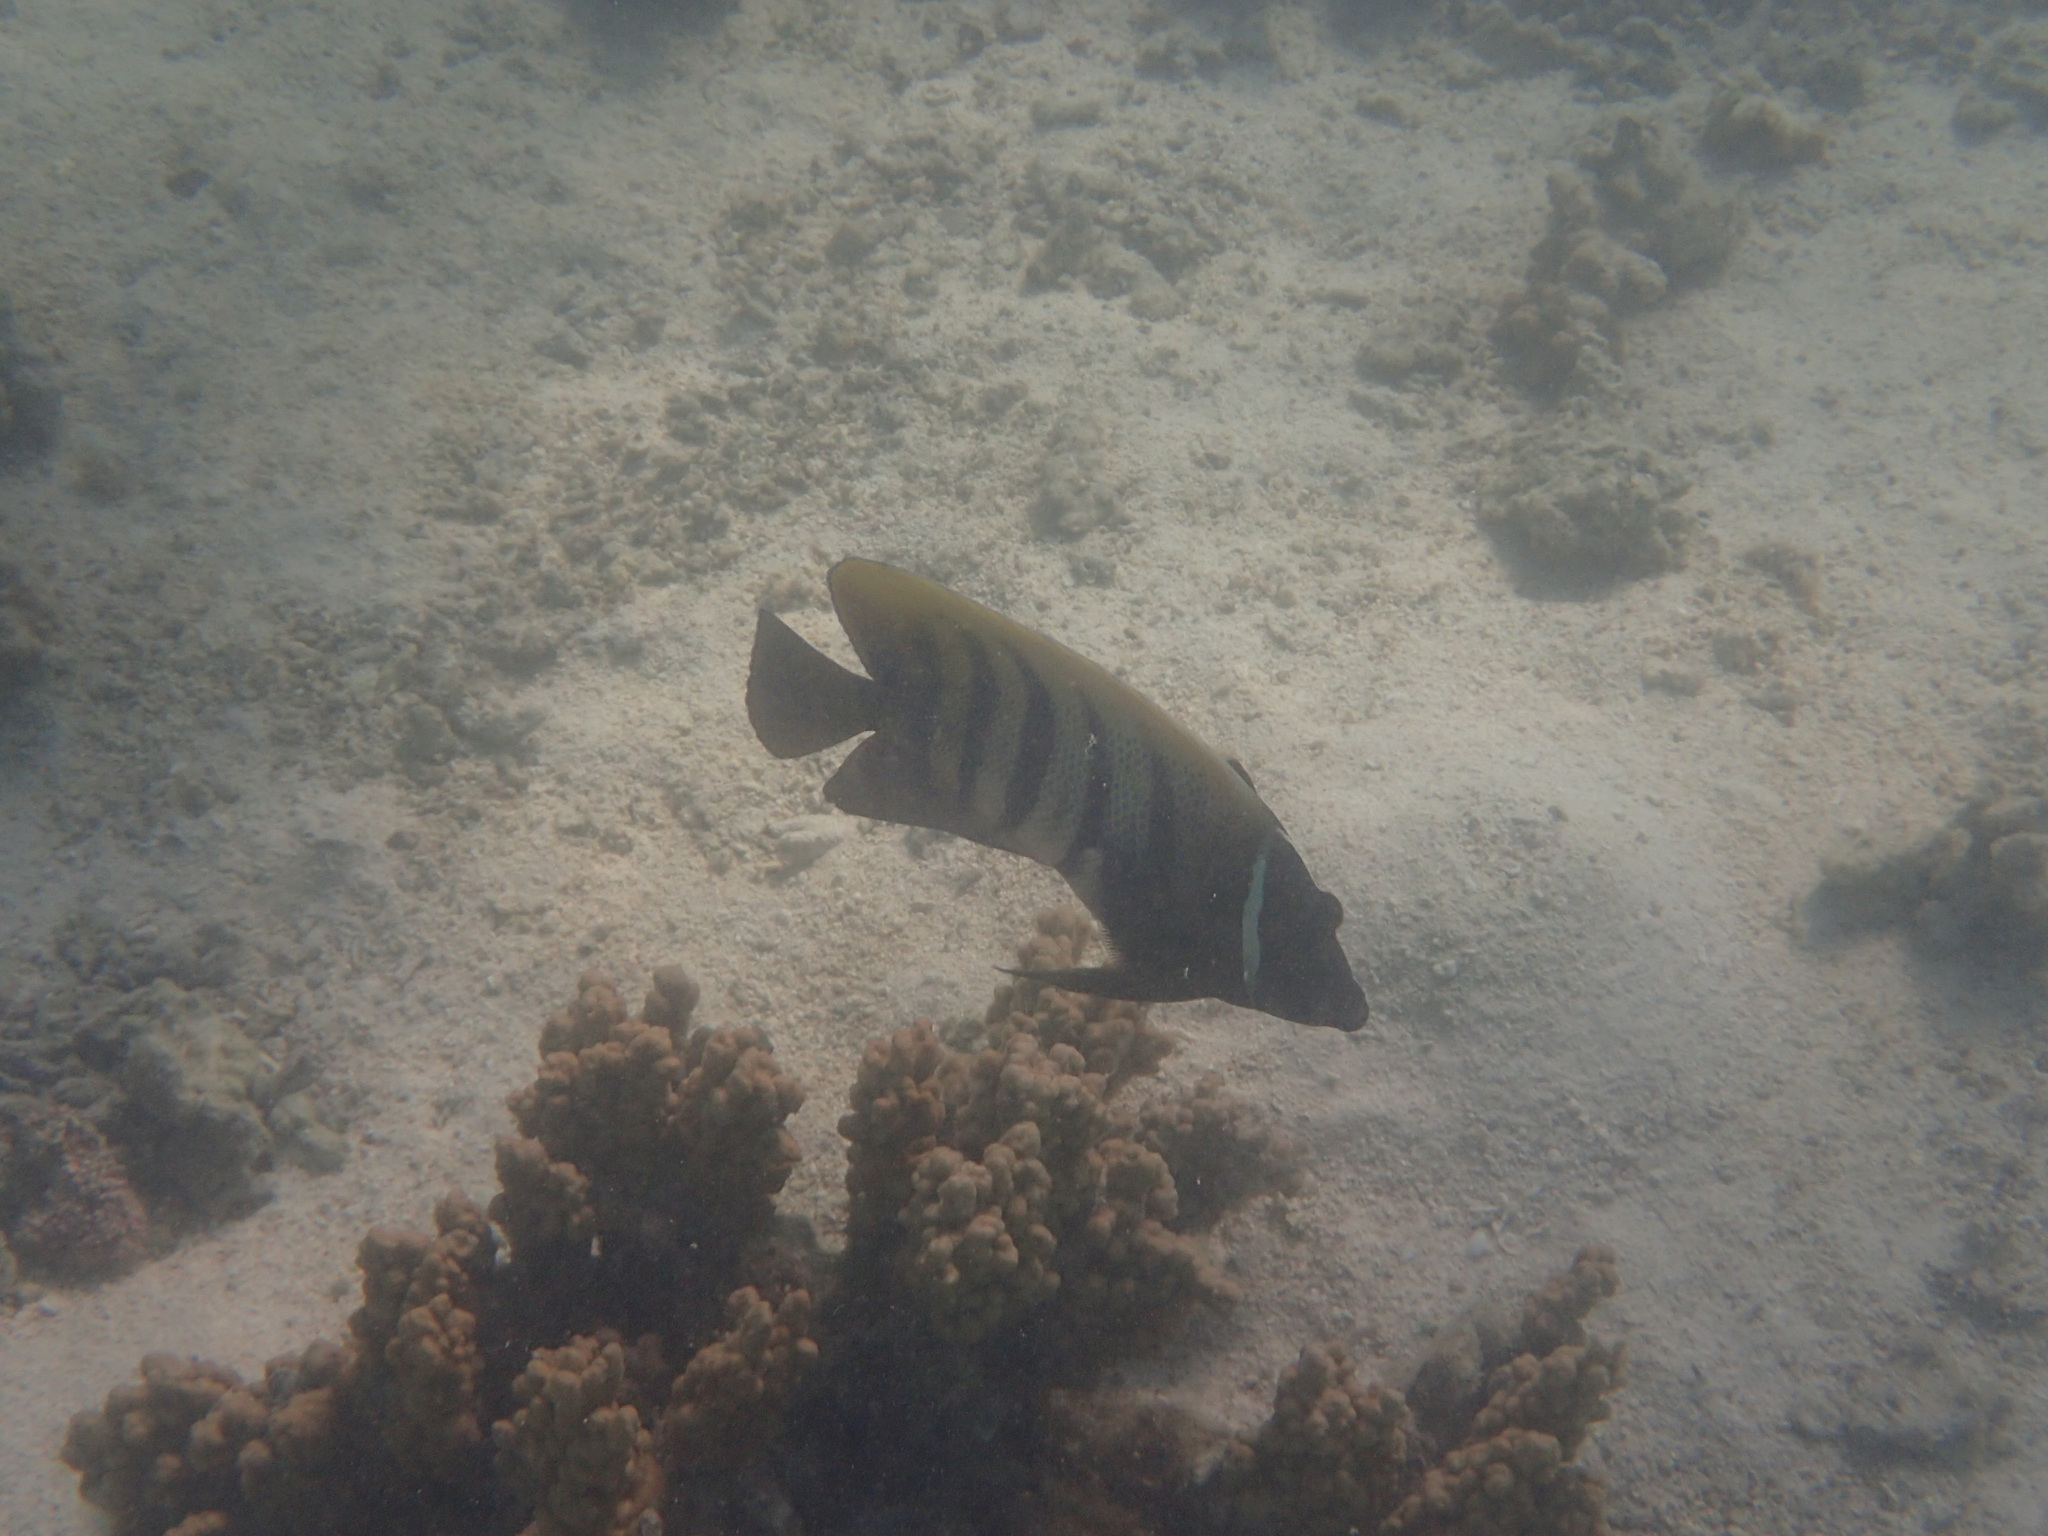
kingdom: Animalia
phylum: Chordata
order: Perciformes
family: Pomacanthidae
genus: Pomacanthus
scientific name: Pomacanthus sexstriatus
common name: Six-banded angelfish
